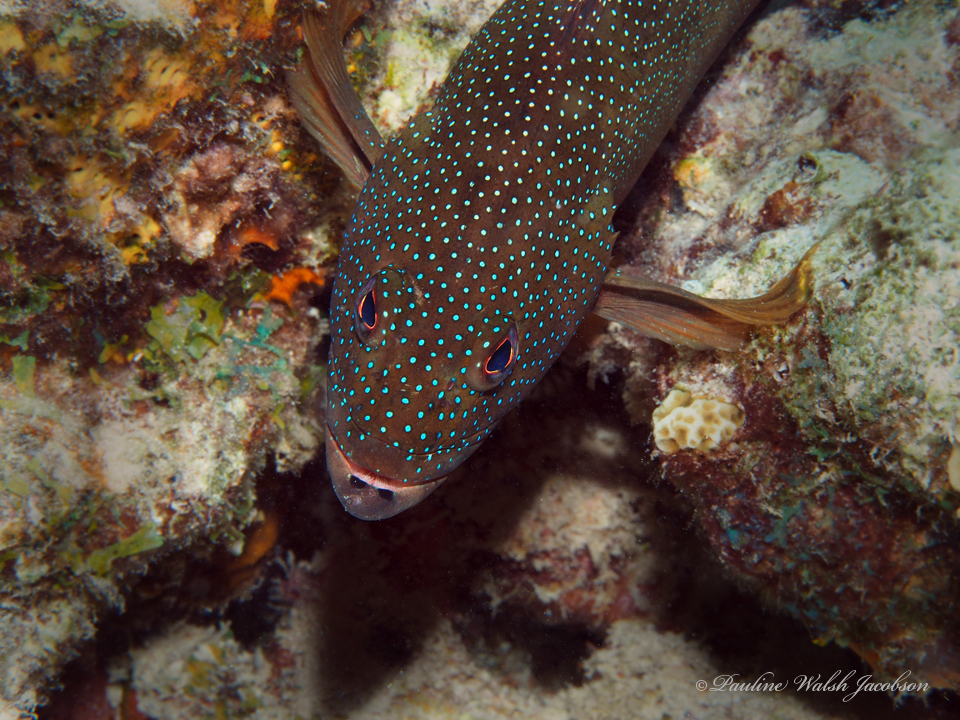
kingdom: Animalia
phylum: Chordata
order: Perciformes
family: Serranidae
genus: Cephalopholis
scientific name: Cephalopholis fulva
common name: Butterfish
